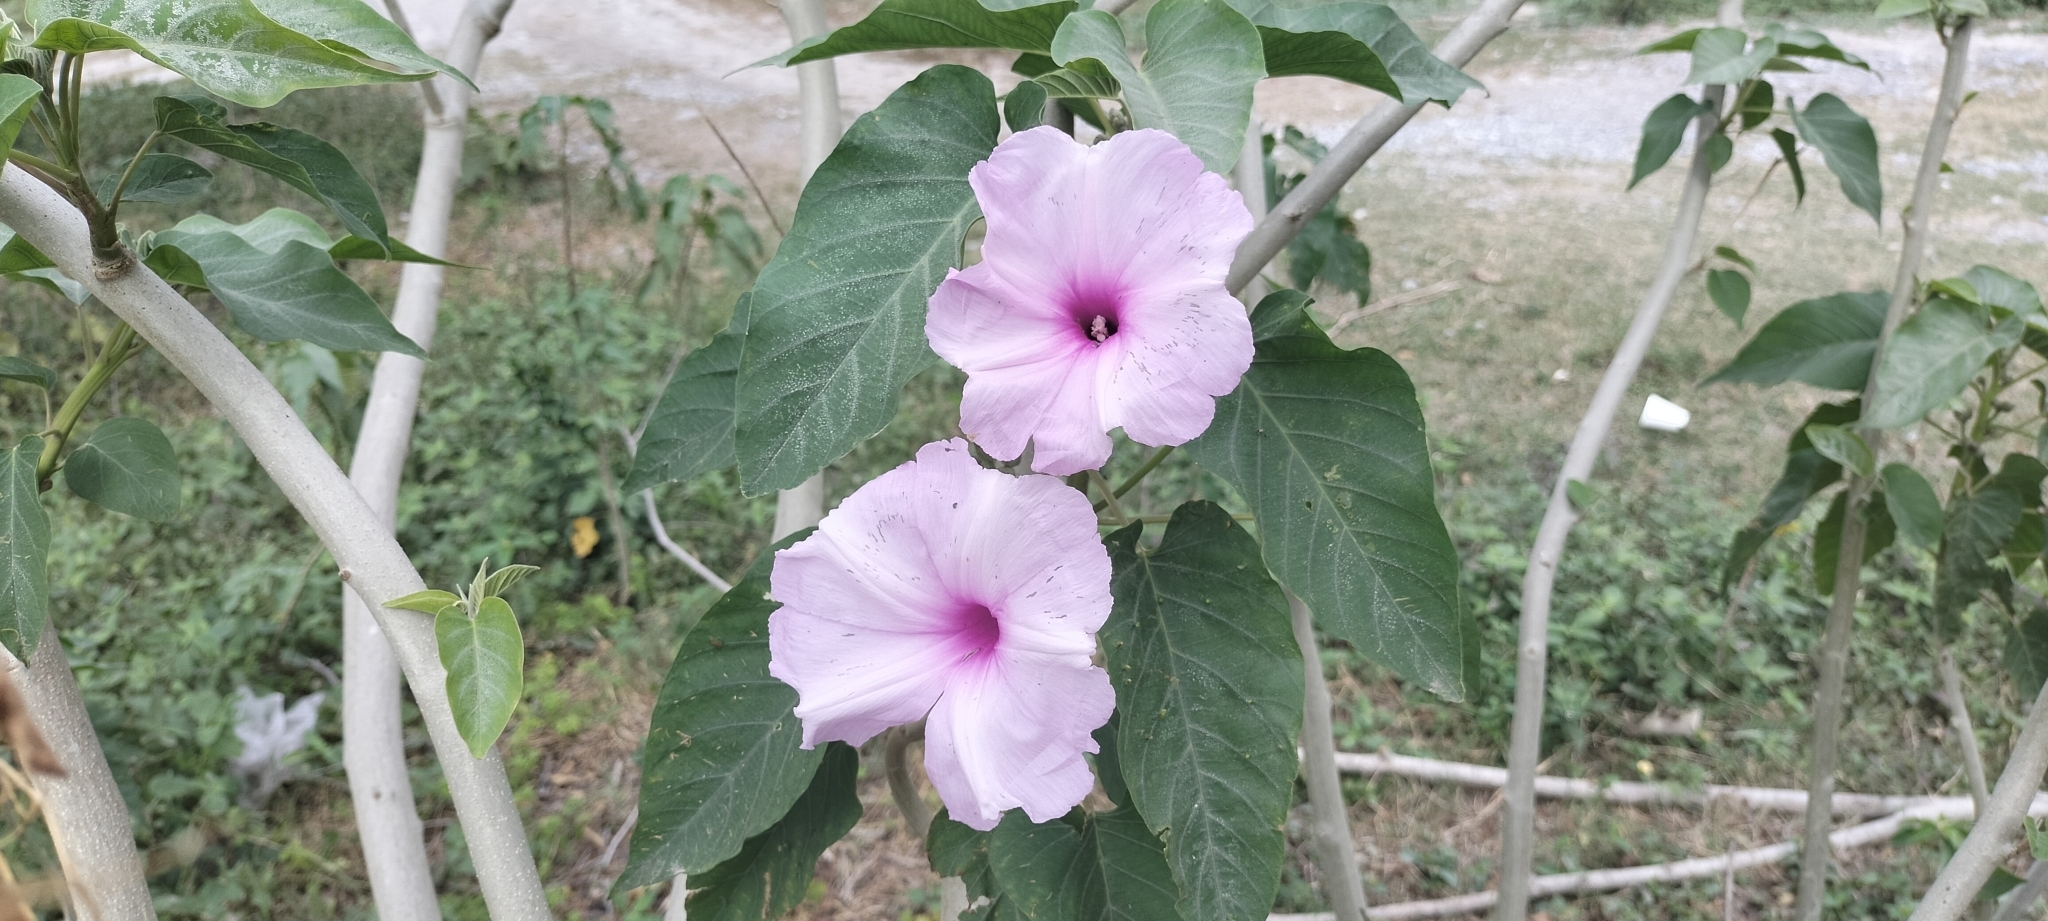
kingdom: Plantae
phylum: Tracheophyta
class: Magnoliopsida
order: Solanales
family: Convolvulaceae
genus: Ipomoea
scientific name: Ipomoea carnea
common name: Morning-glory
